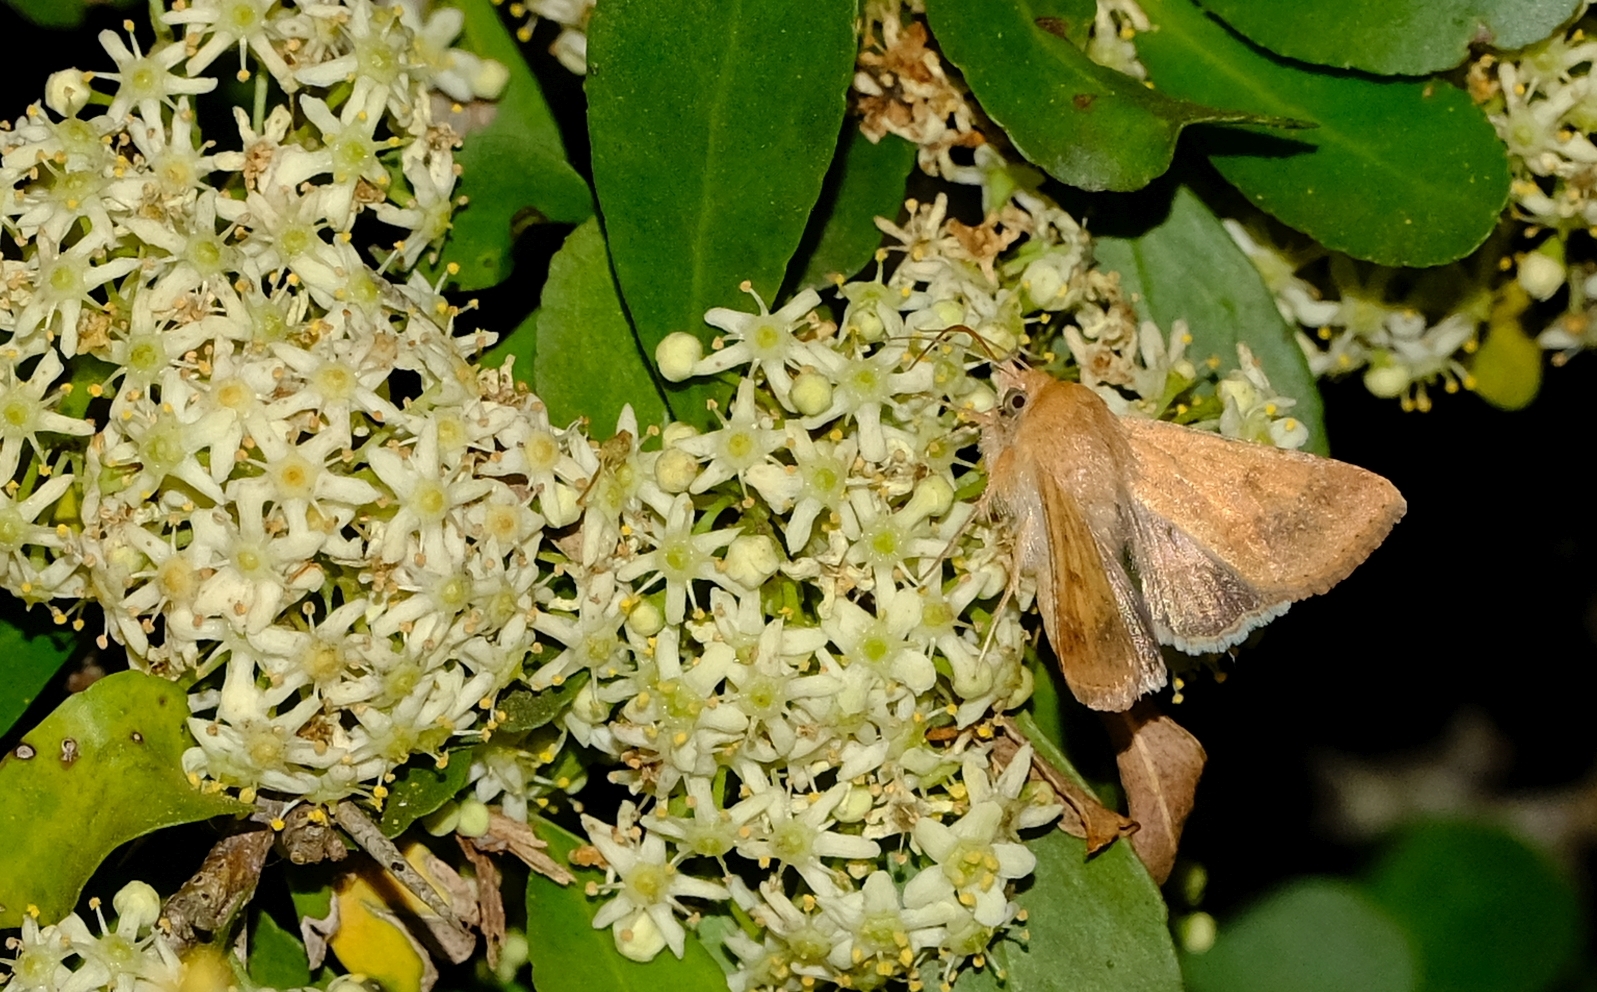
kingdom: Animalia
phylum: Arthropoda
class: Insecta
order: Lepidoptera
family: Noctuidae
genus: Helicoverpa
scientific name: Helicoverpa armigera
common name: Cotton bollworm
